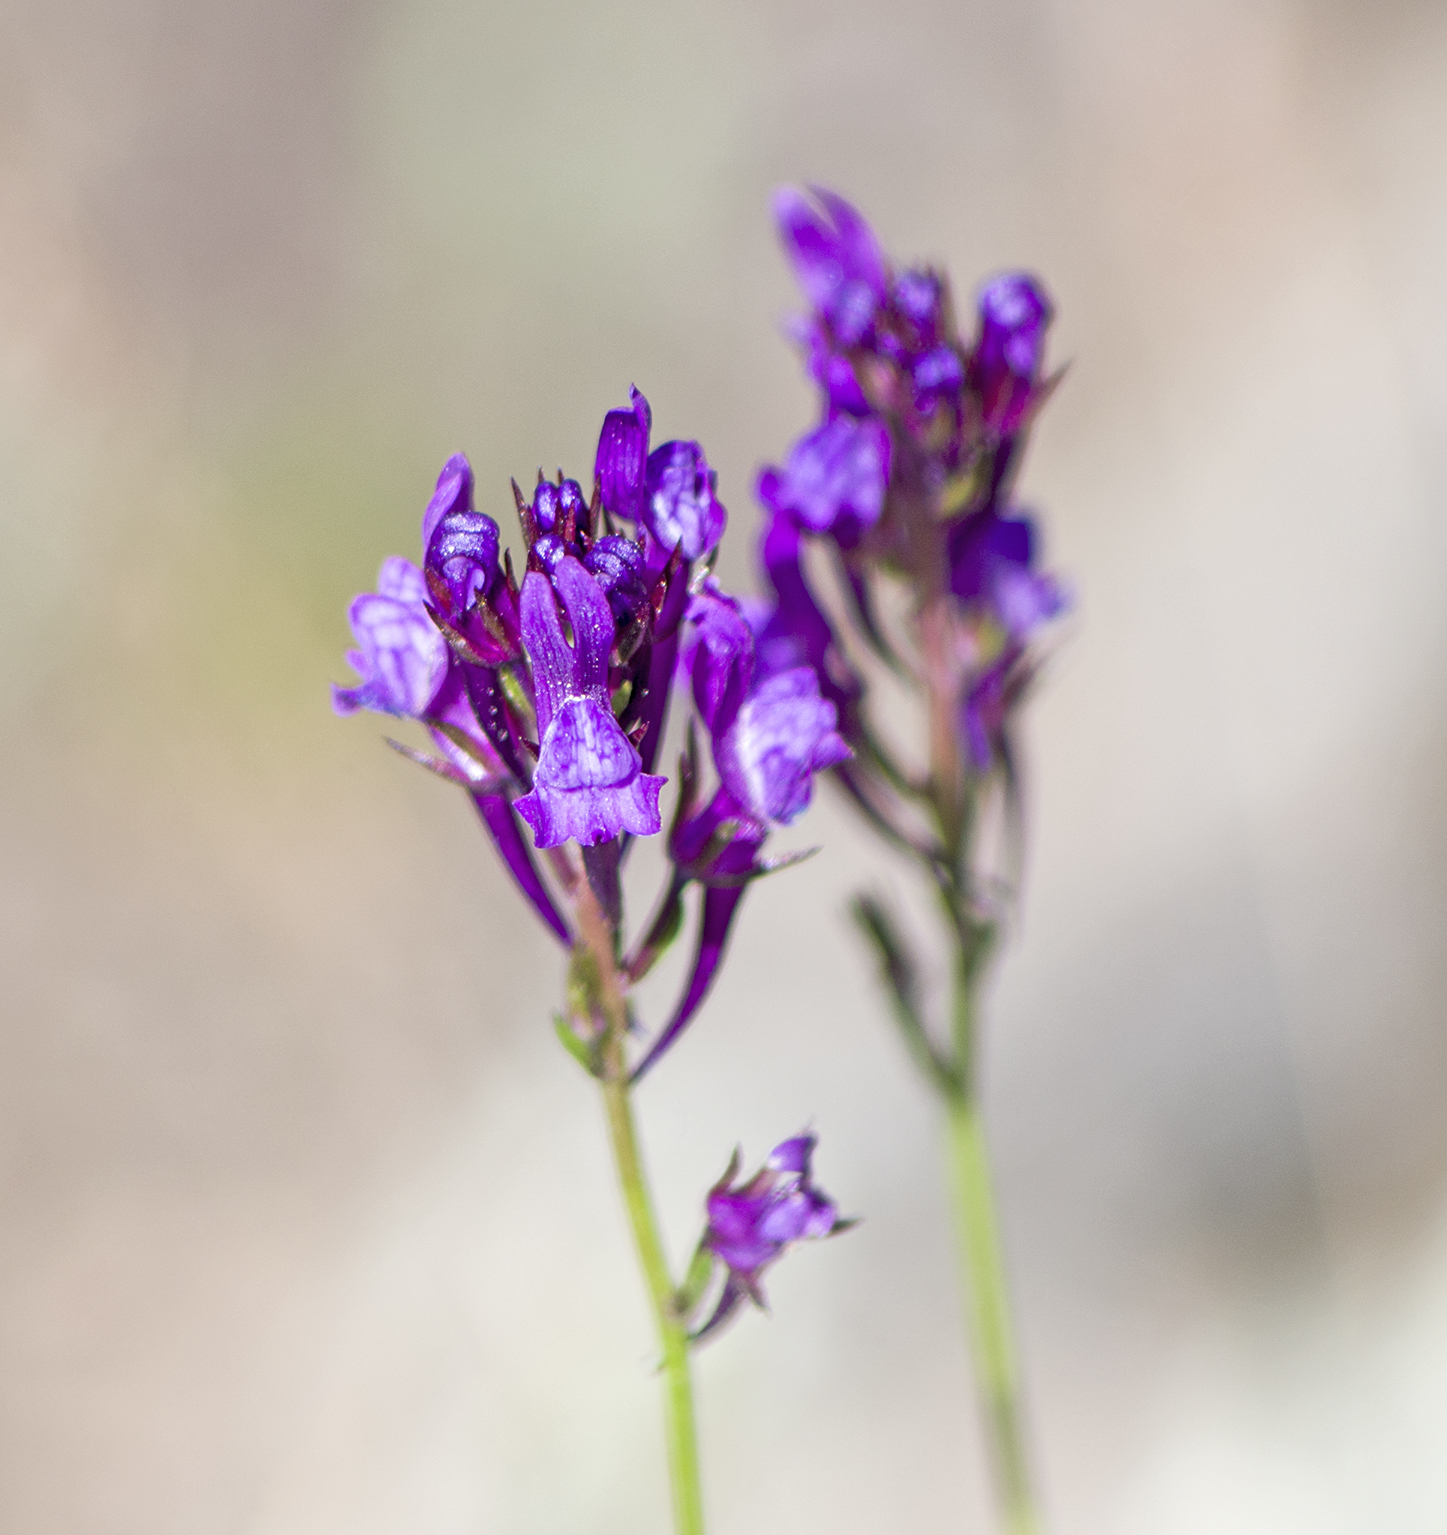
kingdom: Plantae
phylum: Tracheophyta
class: Magnoliopsida
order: Lamiales
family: Plantaginaceae
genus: Linaria
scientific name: Linaria pelisseriana
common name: Jersey toadflax
